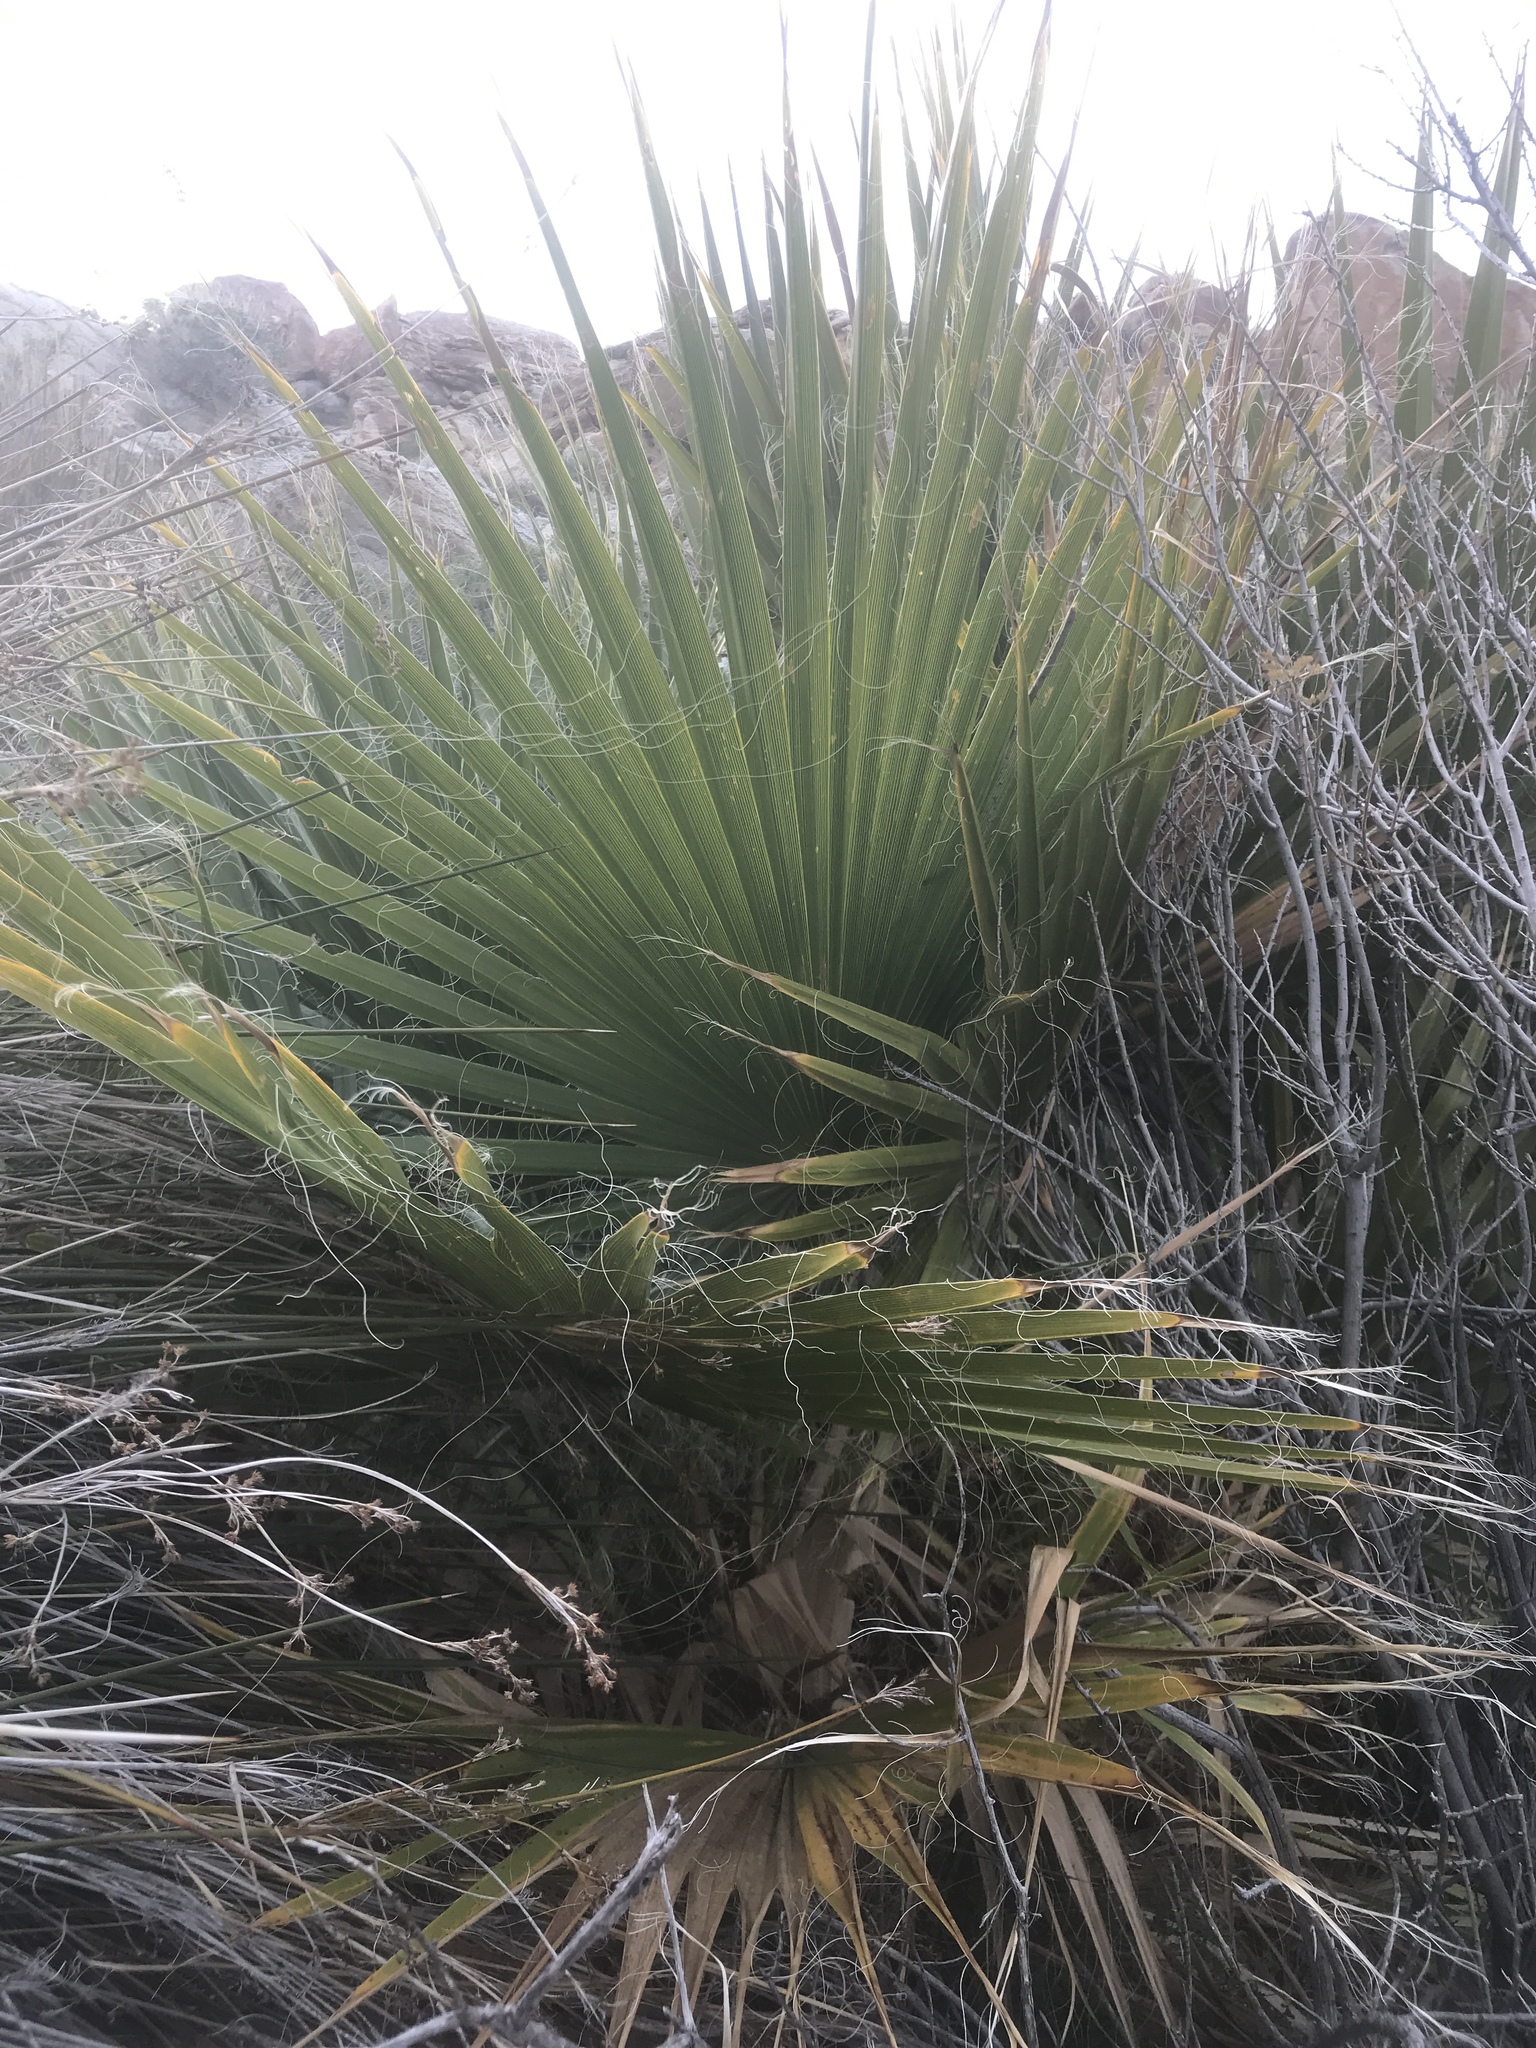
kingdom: Plantae
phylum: Tracheophyta
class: Liliopsida
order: Arecales
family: Arecaceae
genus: Washingtonia
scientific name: Washingtonia filifera
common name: California fan palm
